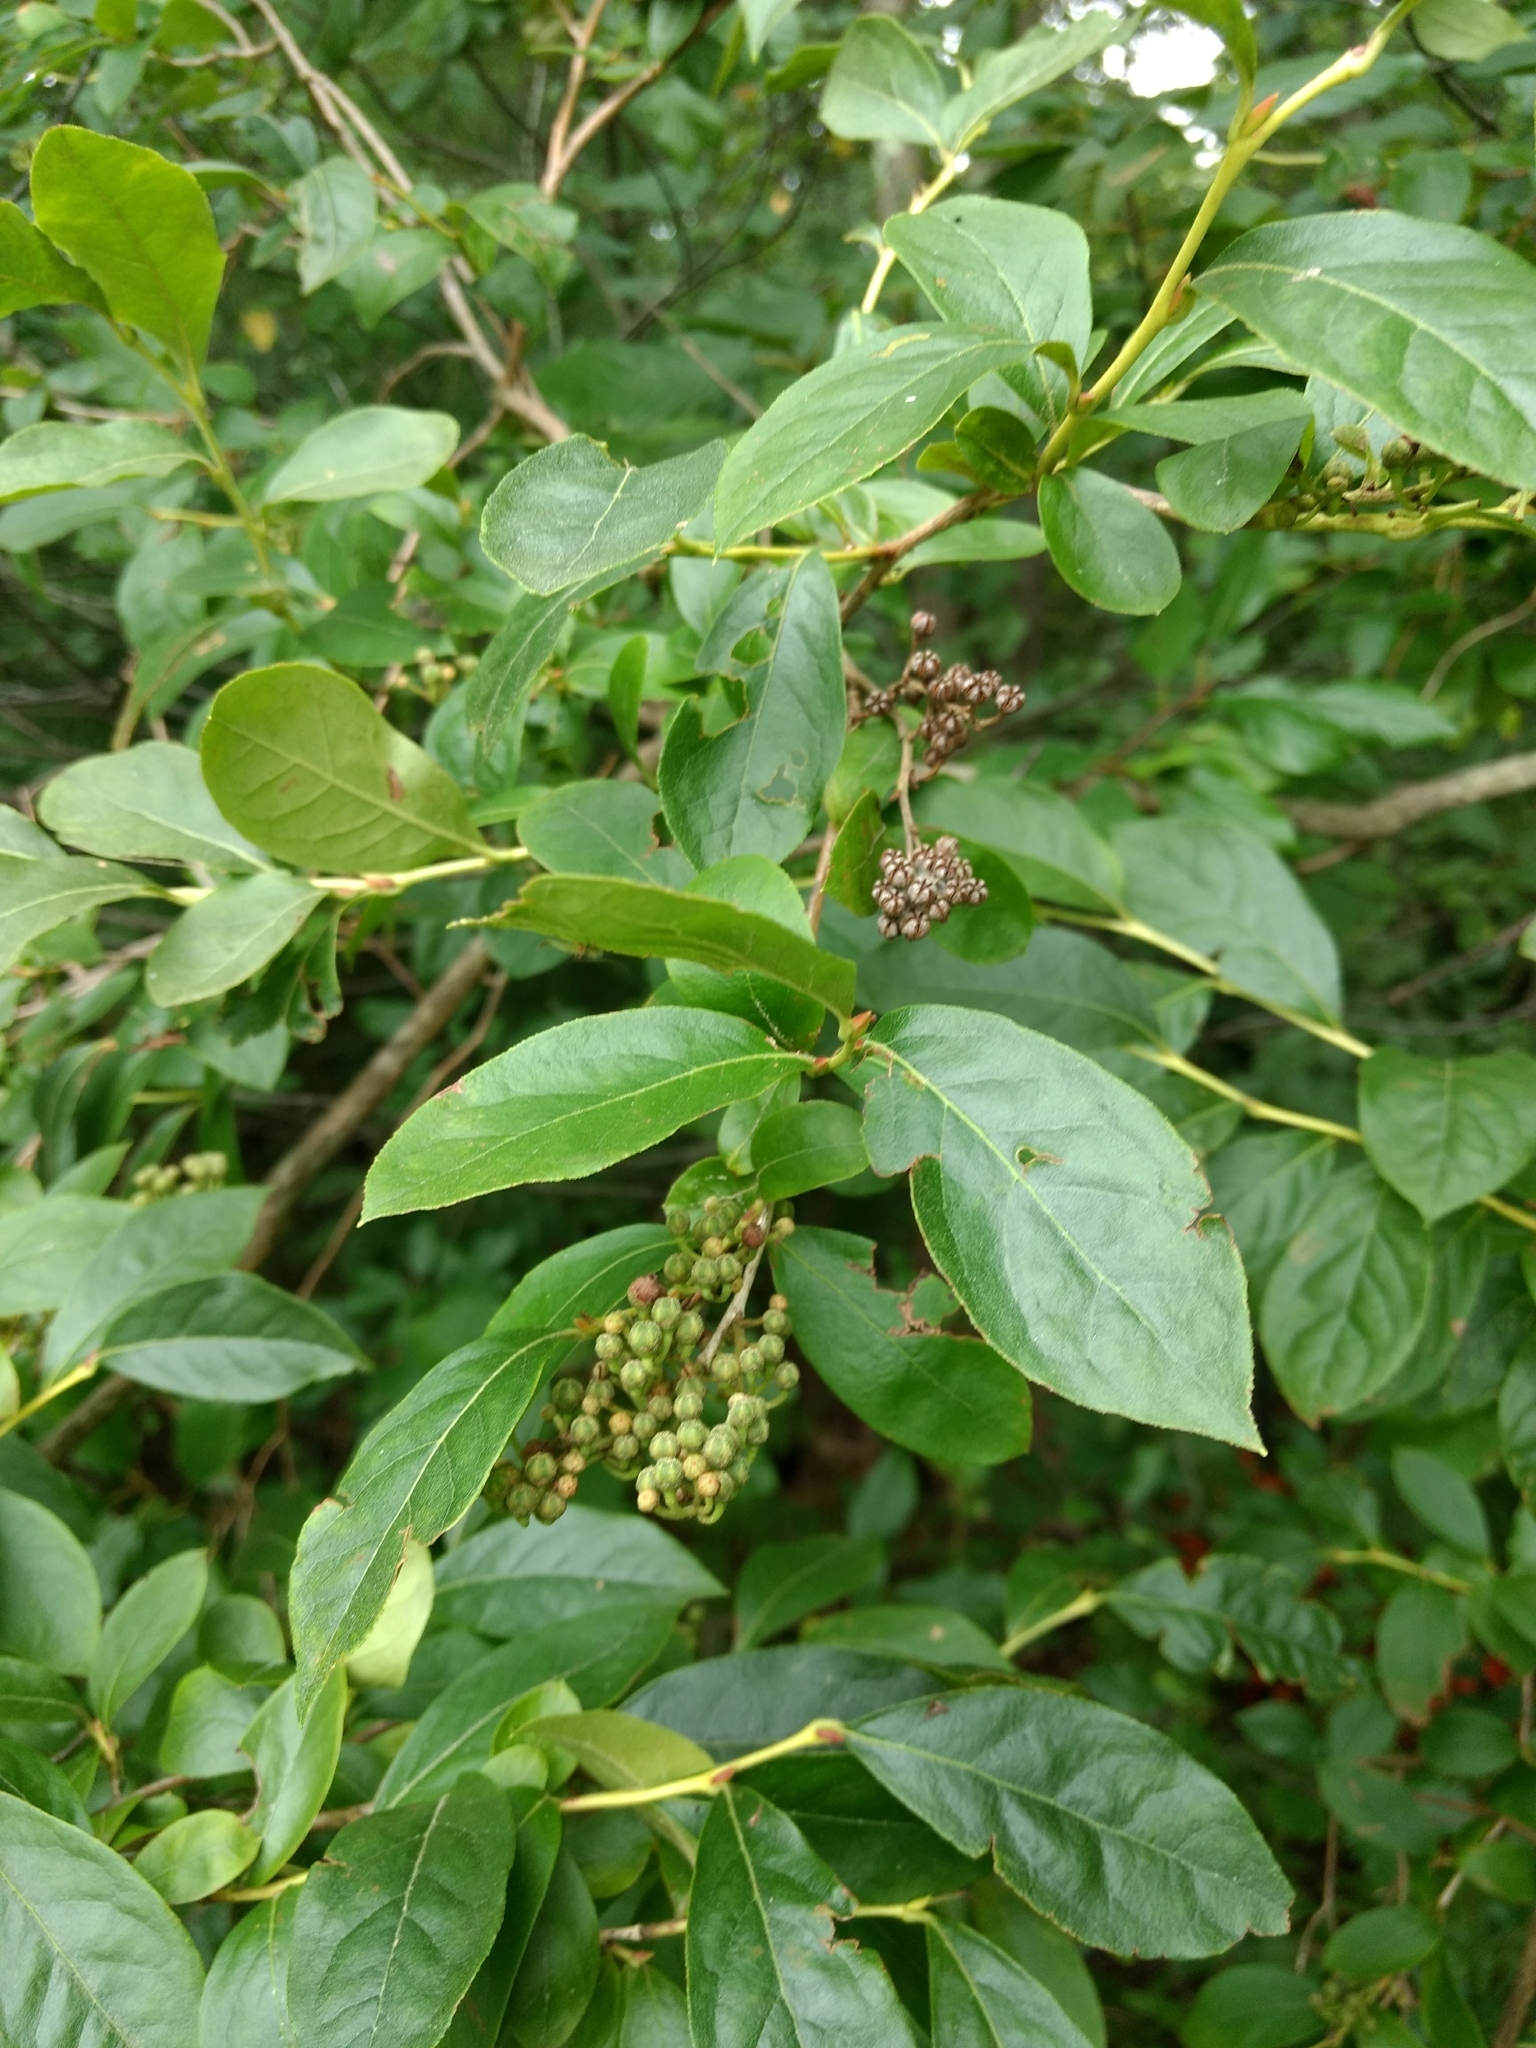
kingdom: Plantae
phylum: Tracheophyta
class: Magnoliopsida
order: Ericales
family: Ericaceae
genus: Lyonia
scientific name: Lyonia ligustrina
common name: Maleberry
